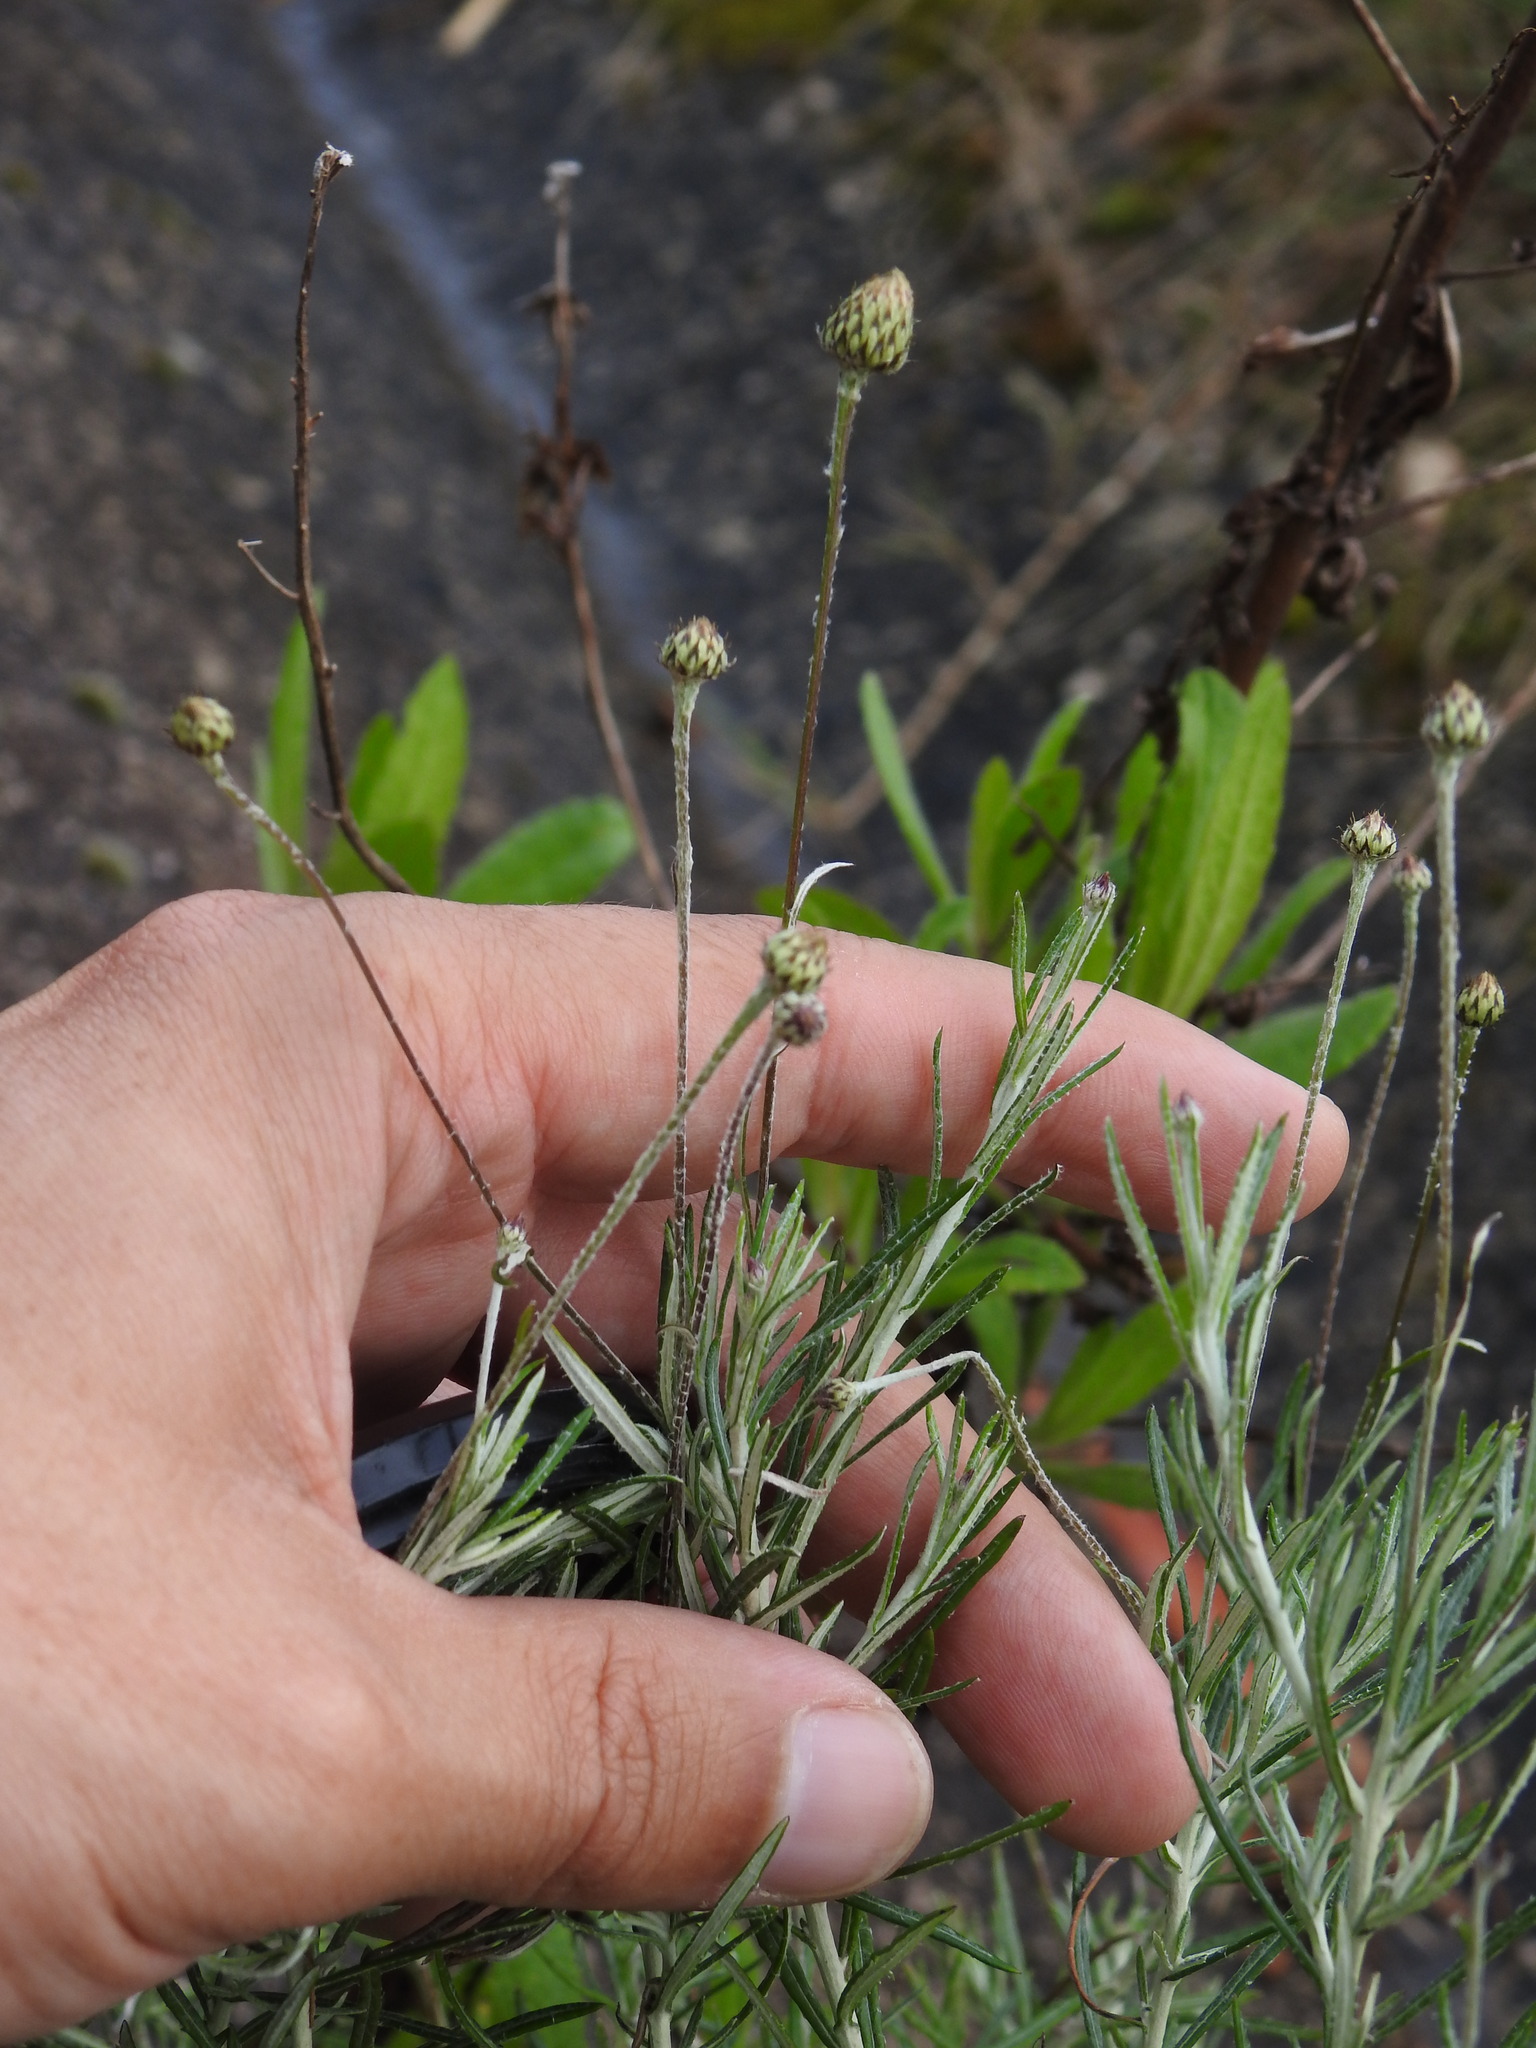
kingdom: Plantae
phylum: Tracheophyta
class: Magnoliopsida
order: Asterales
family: Asteraceae
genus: Phagnalon
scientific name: Phagnalon saxatile
